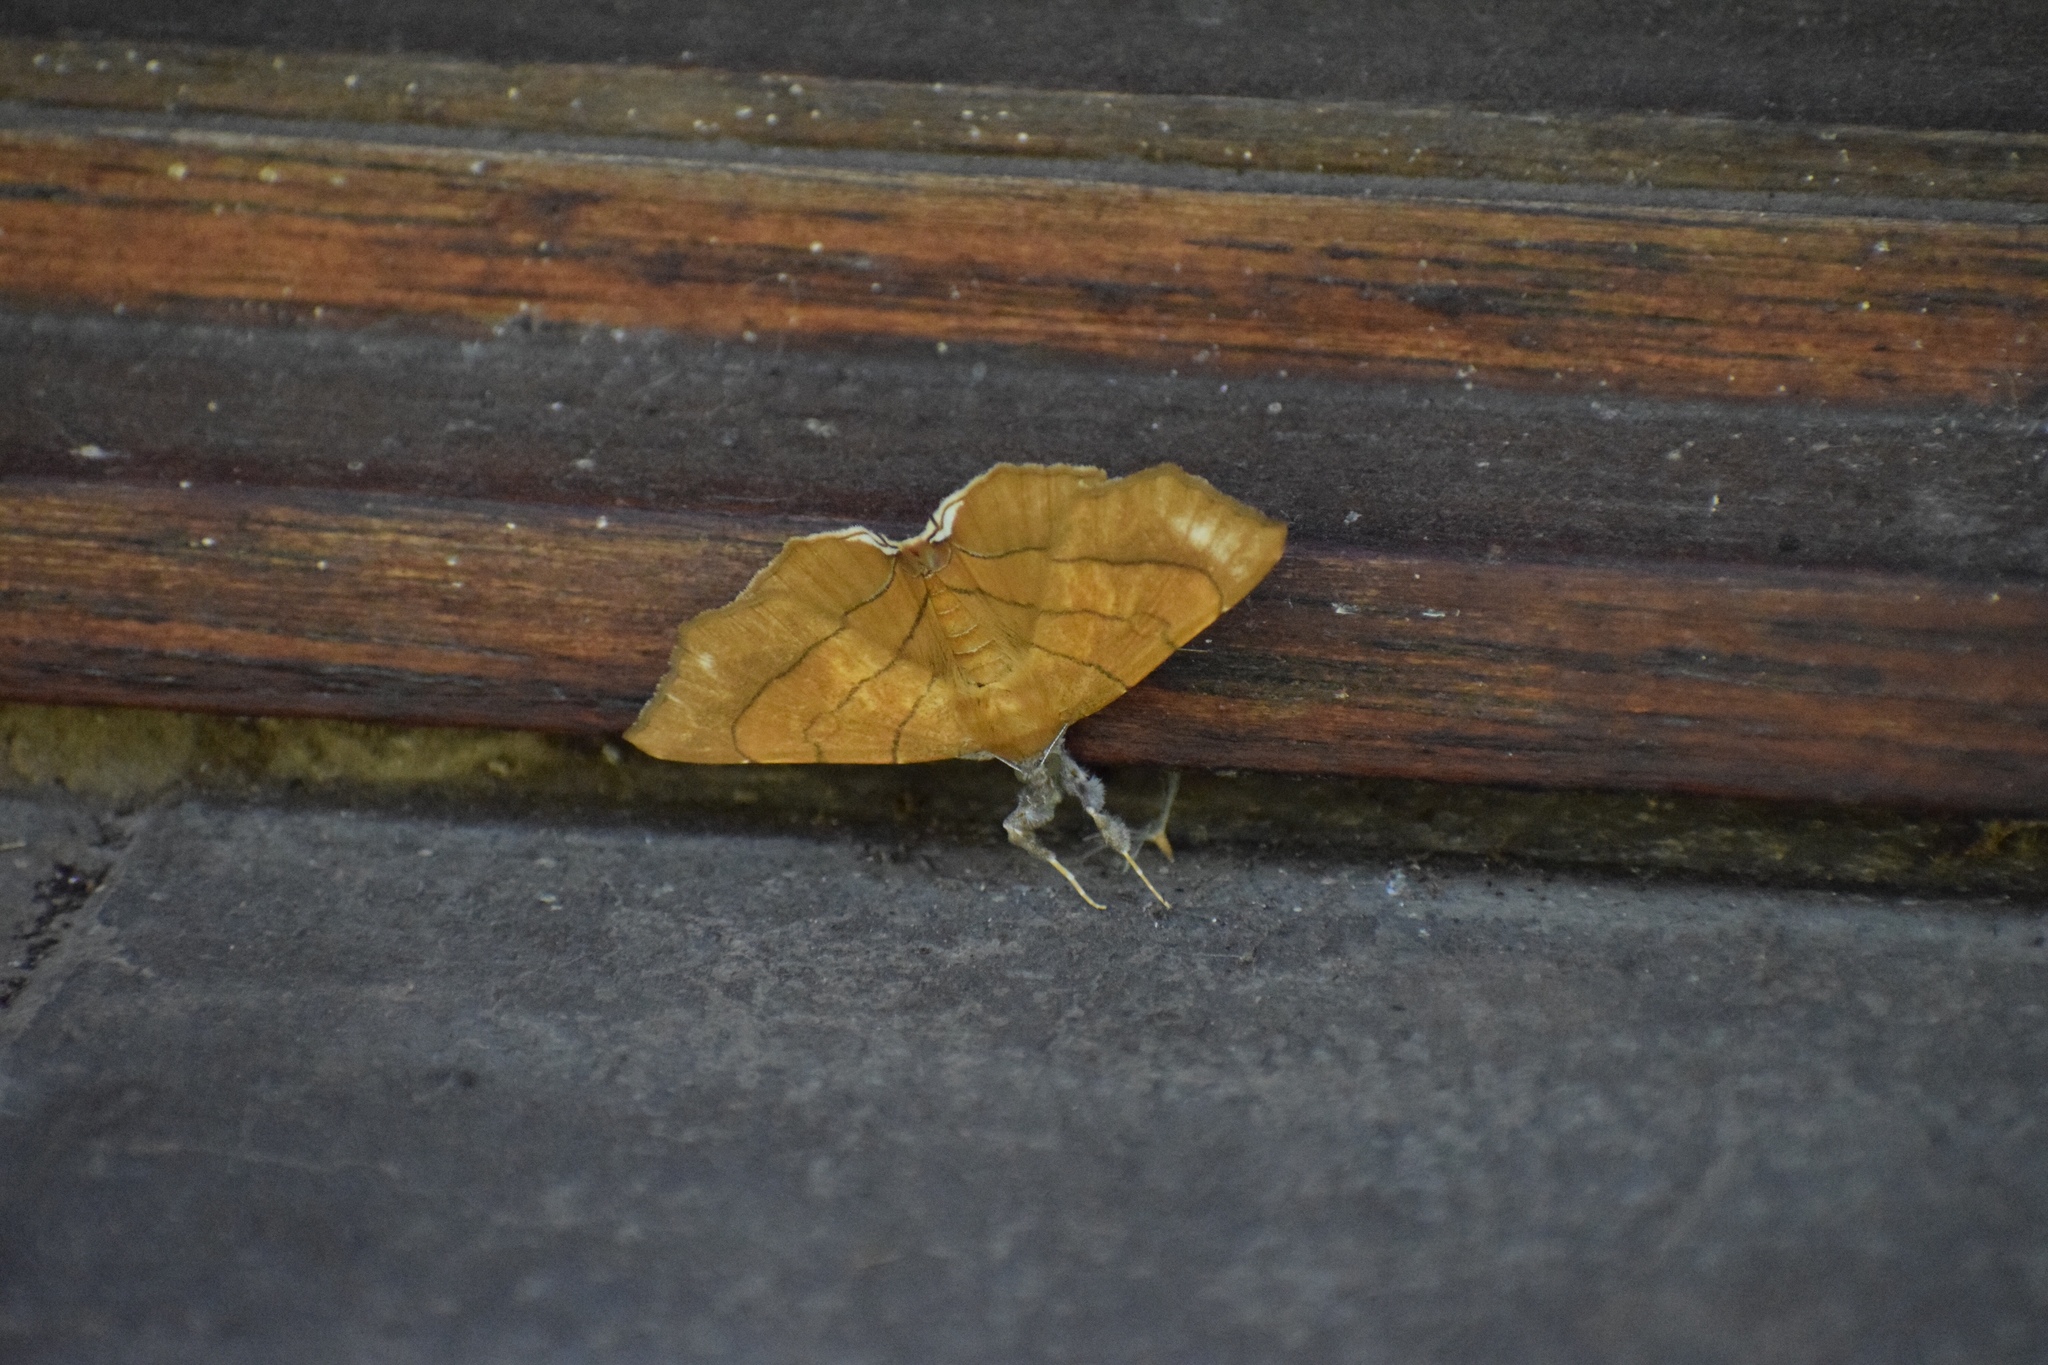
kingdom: Animalia
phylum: Arthropoda
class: Insecta
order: Lepidoptera
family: Erebidae
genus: Gracilodes
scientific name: Gracilodes caffra
